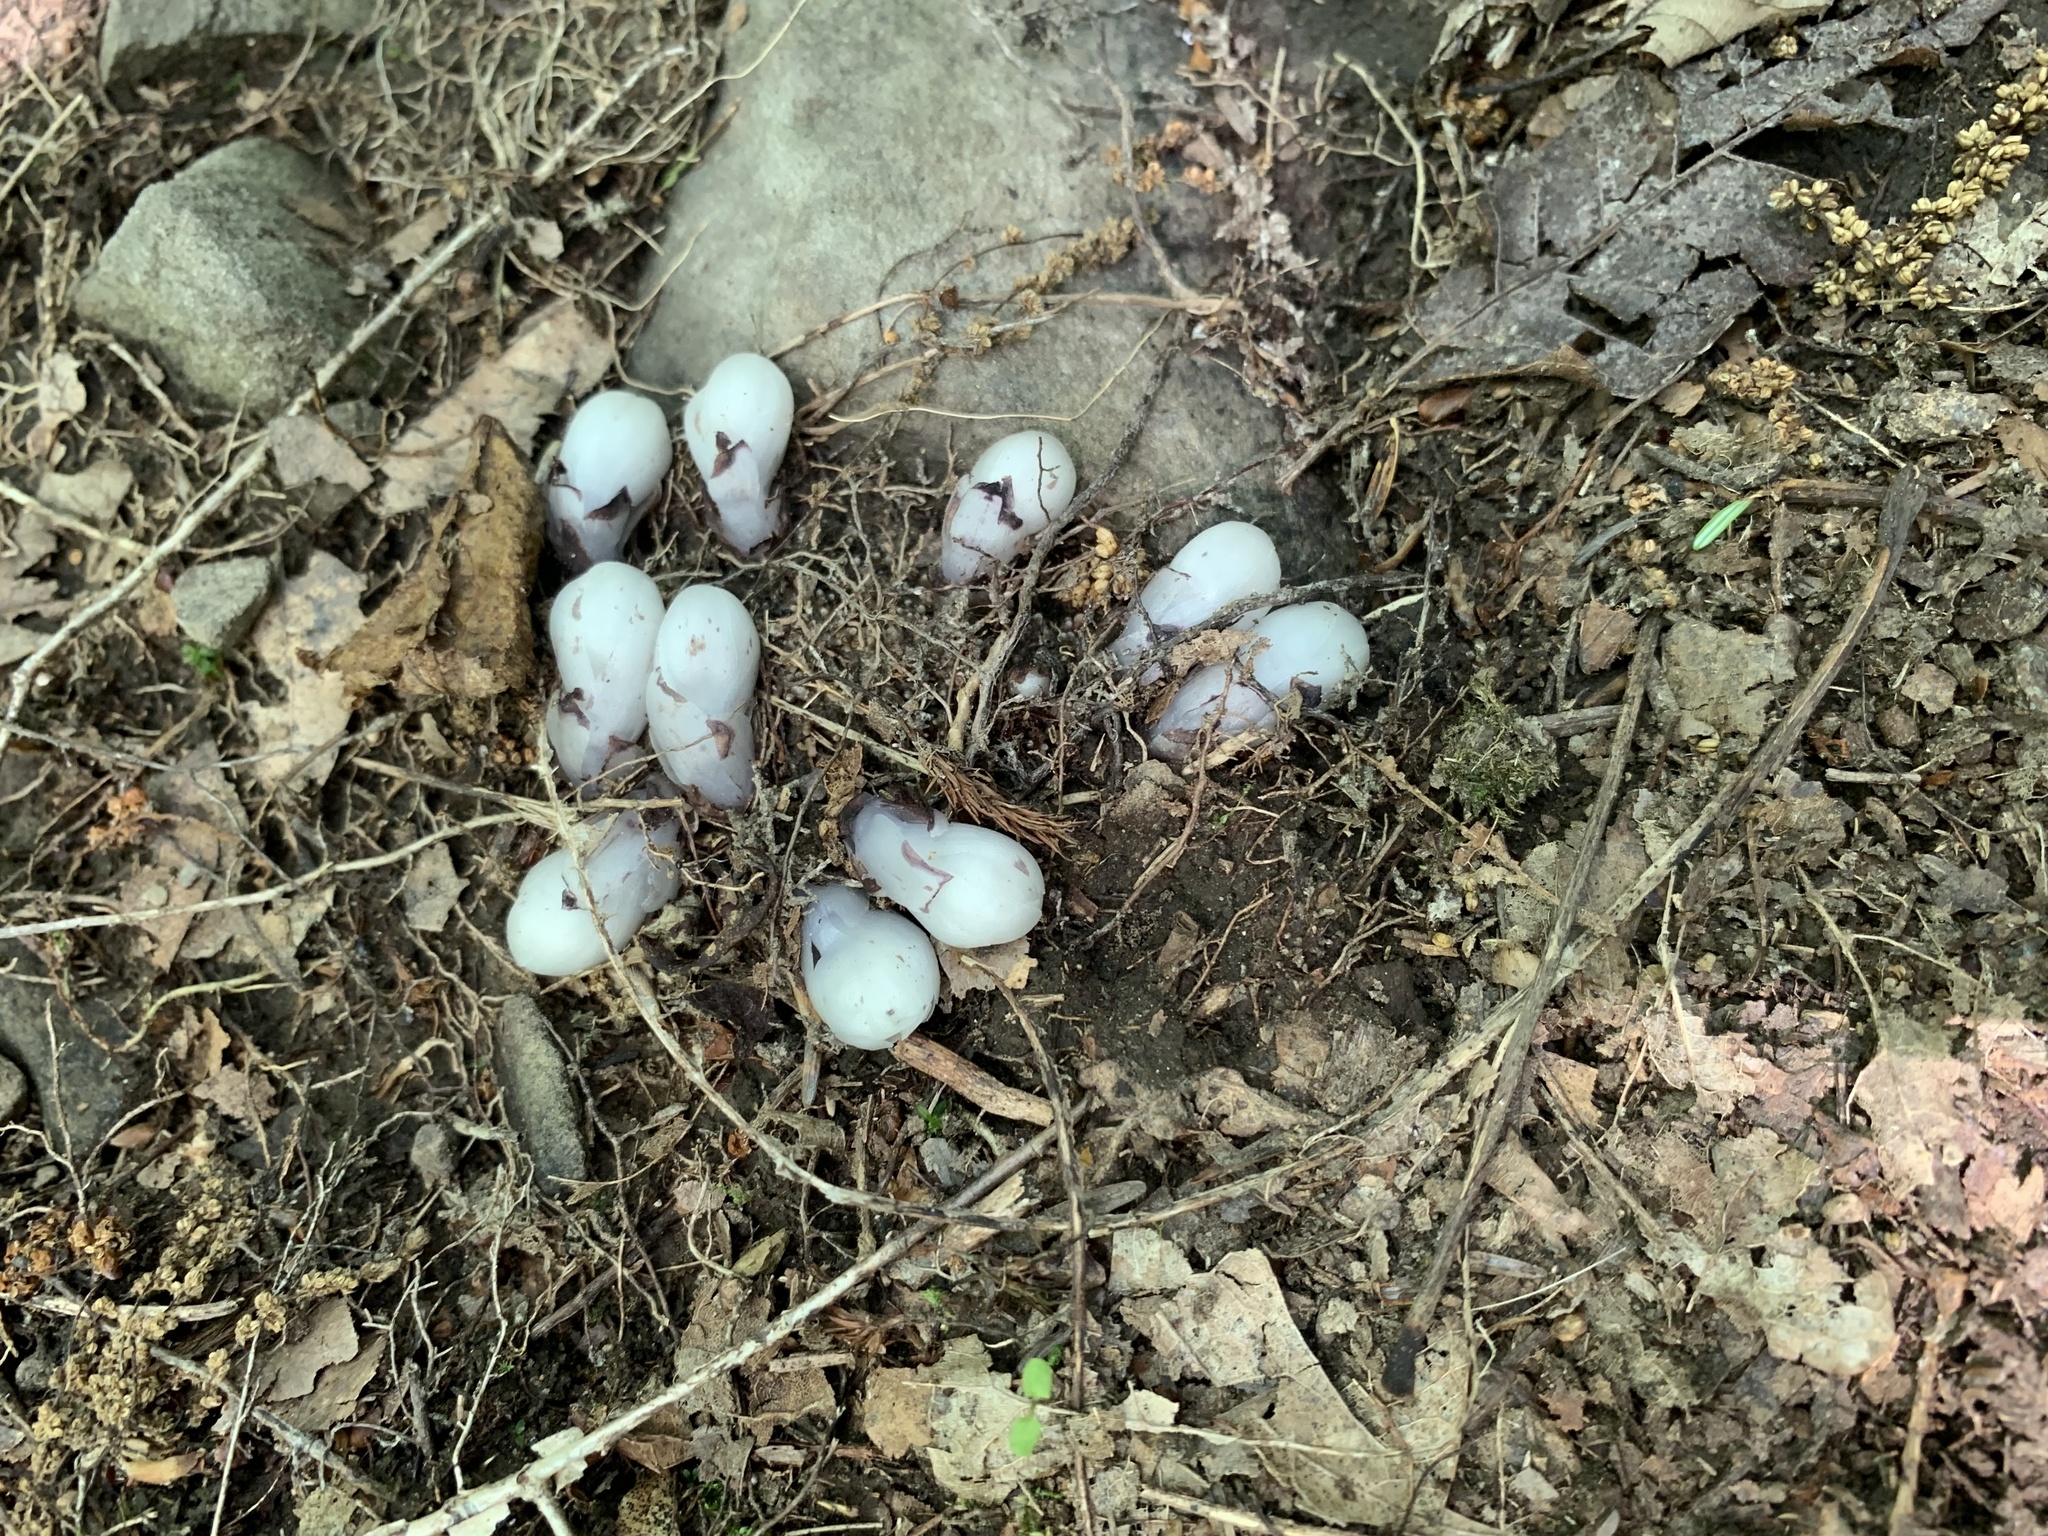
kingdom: Plantae
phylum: Tracheophyta
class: Magnoliopsida
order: Ericales
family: Ericaceae
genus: Monotropa
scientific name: Monotropa uniflora
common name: Convulsion root
